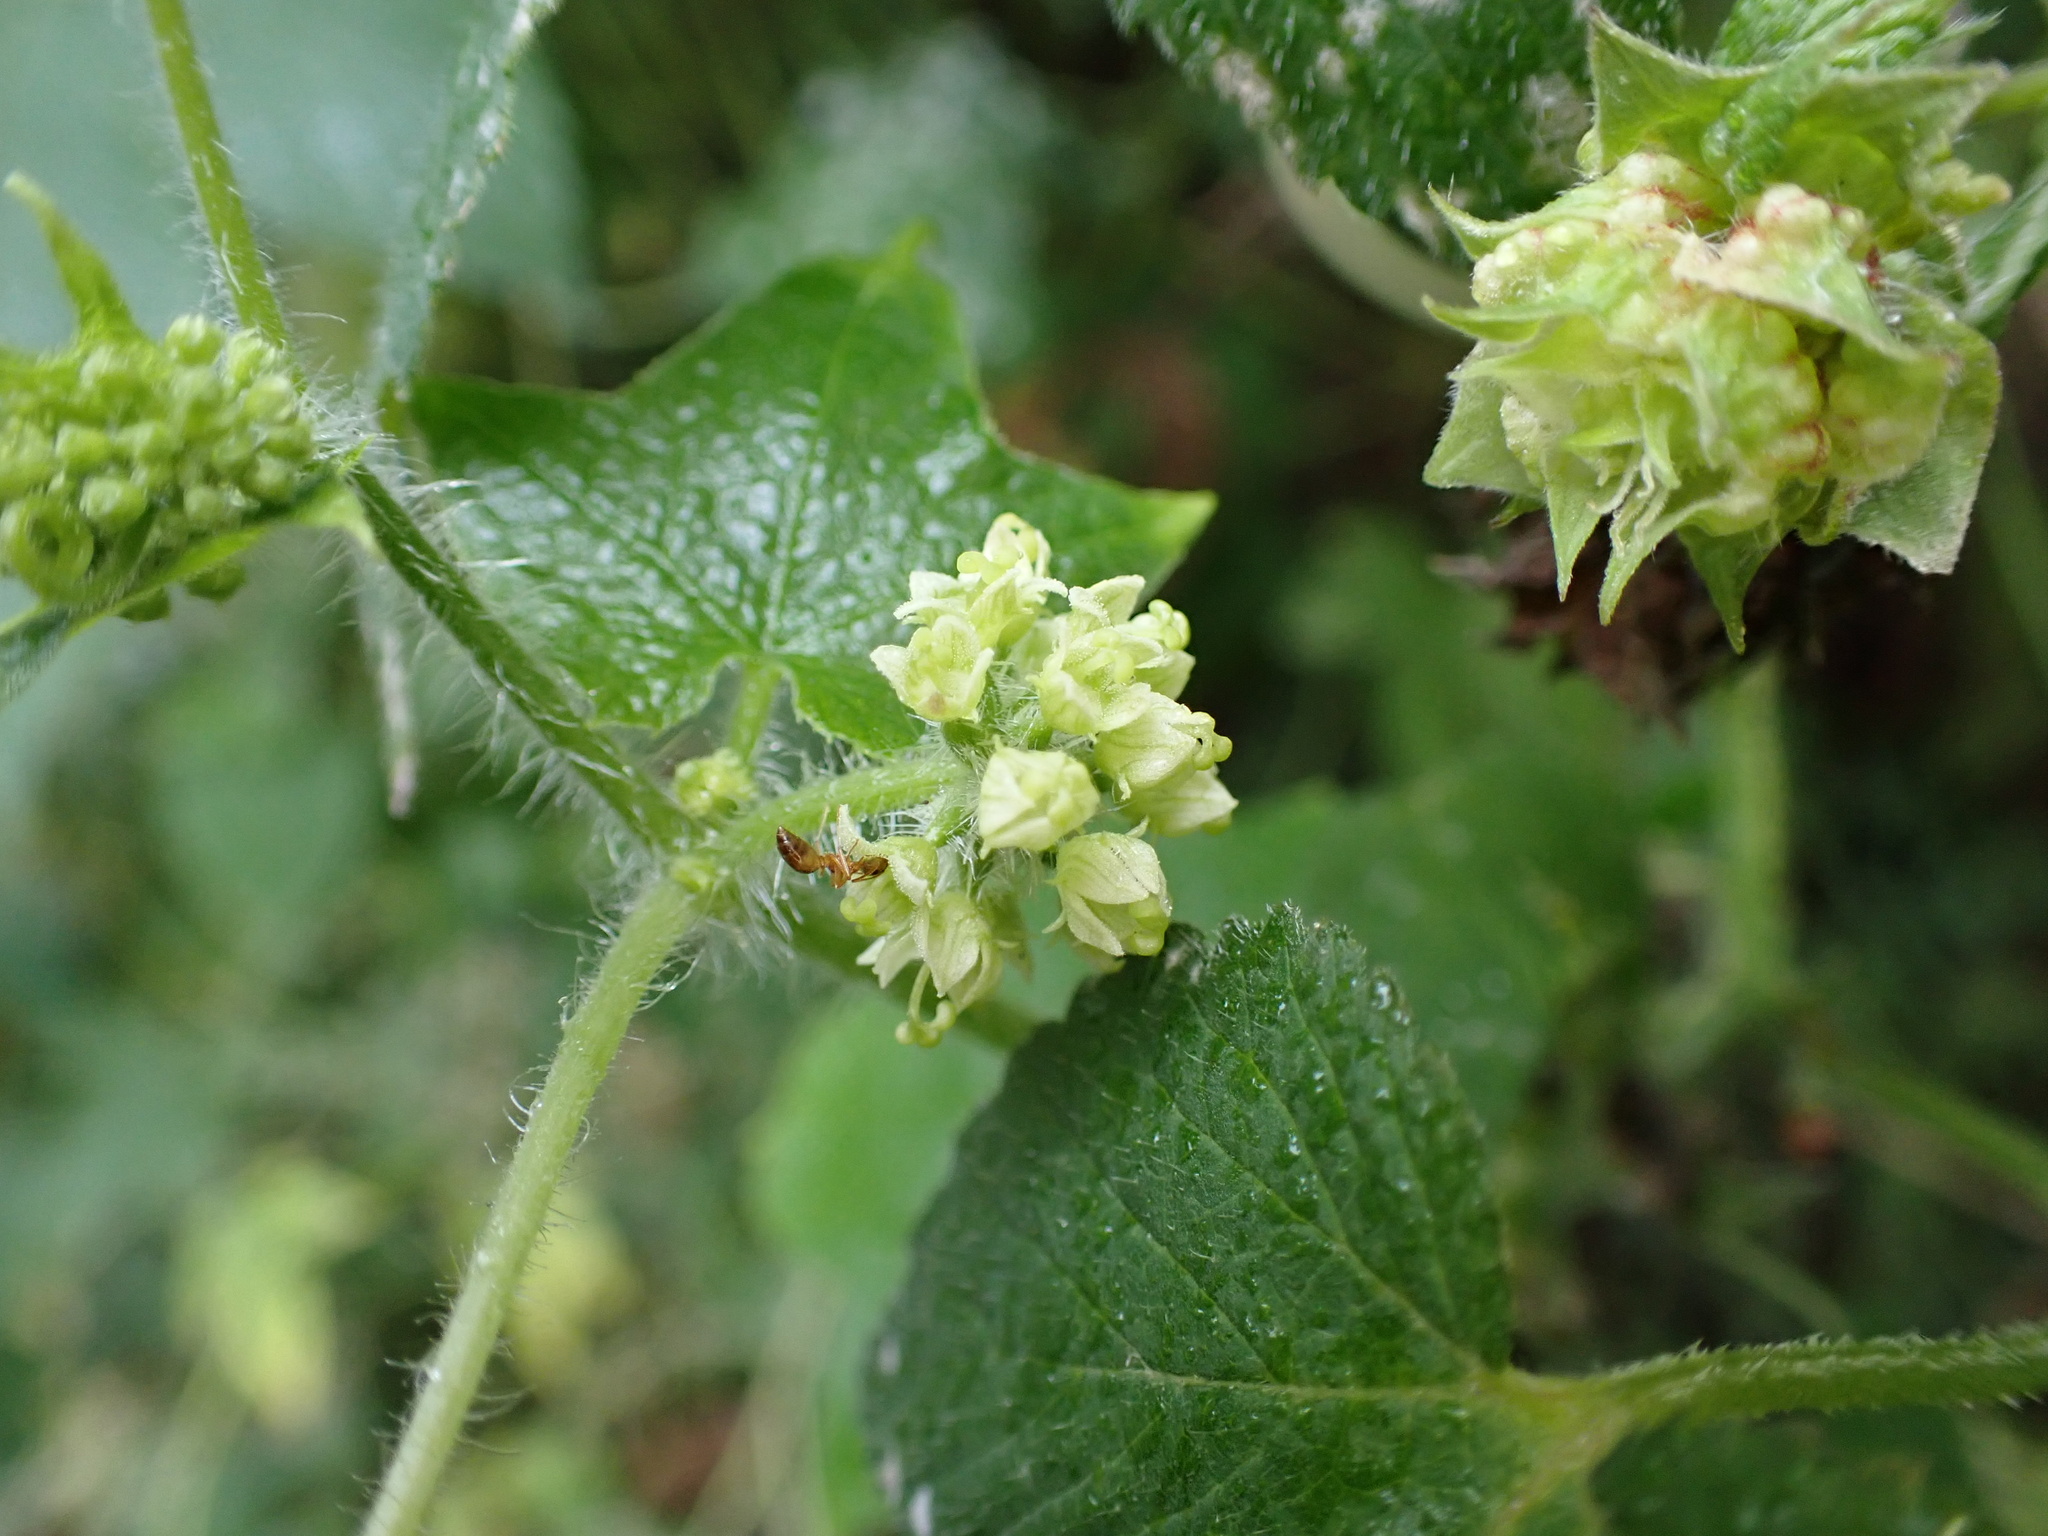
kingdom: Plantae
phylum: Tracheophyta
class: Magnoliopsida
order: Cucurbitales
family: Cucurbitaceae
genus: Sicyos
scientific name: Sicyos angulatus
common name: Angled burr cucumber
